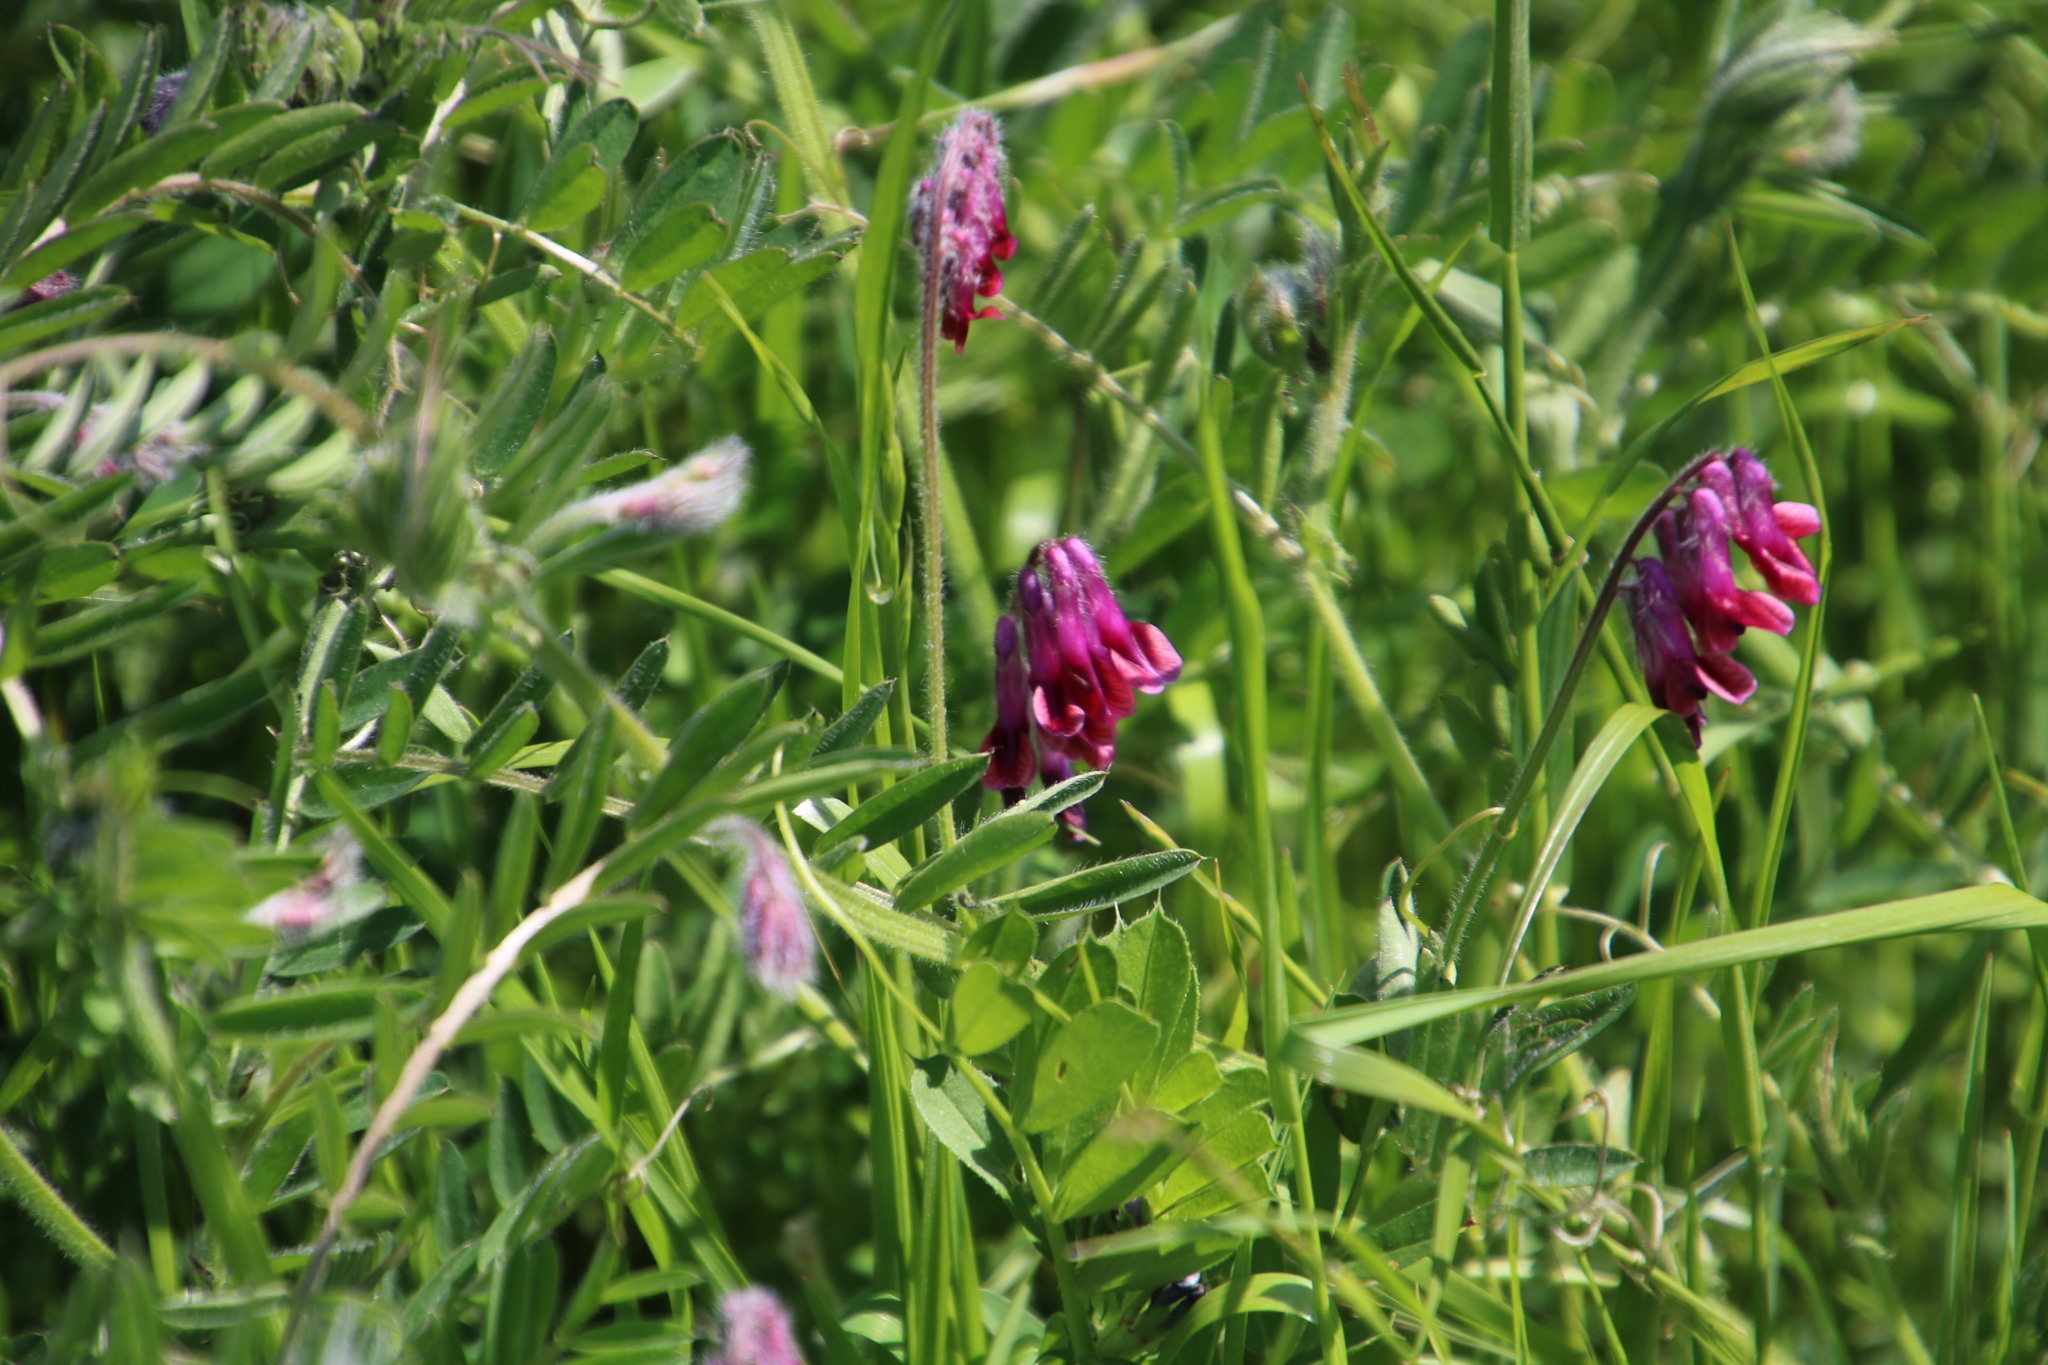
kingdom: Plantae
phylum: Tracheophyta
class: Magnoliopsida
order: Fabales
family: Fabaceae
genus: Vicia
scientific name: Vicia benghalensis
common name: Purple vetch
